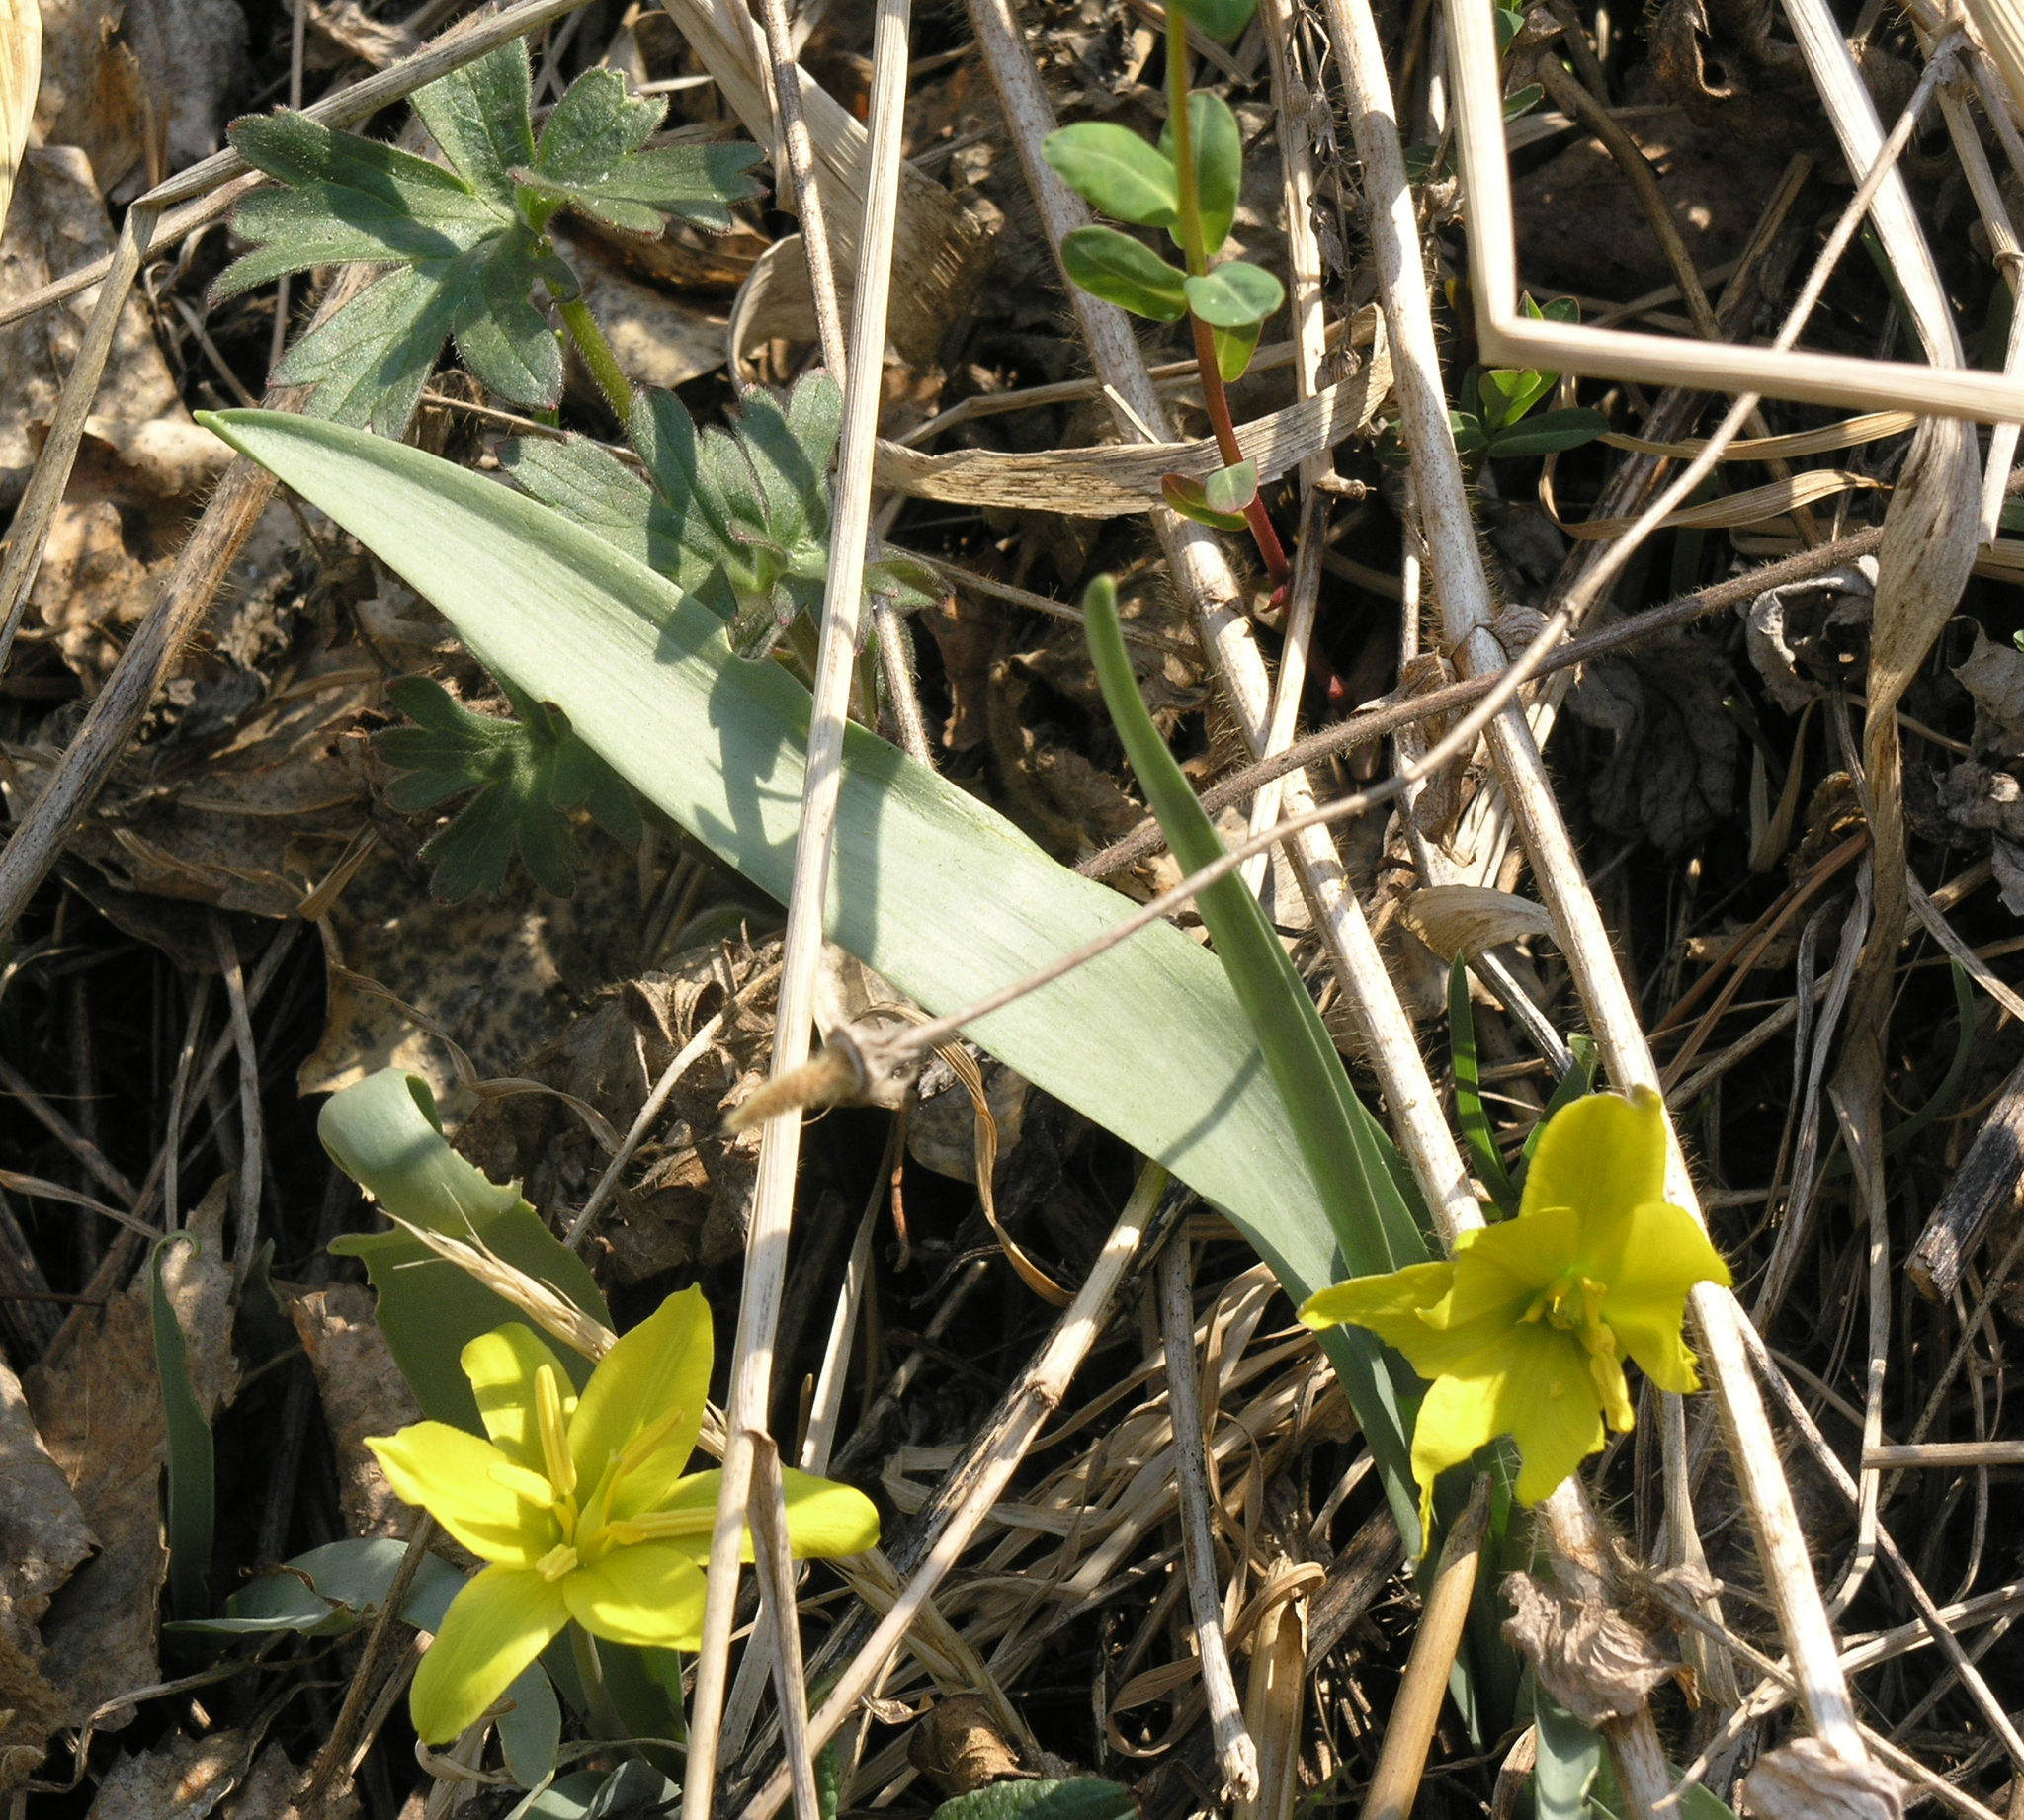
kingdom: Plantae
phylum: Tracheophyta
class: Liliopsida
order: Liliales
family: Liliaceae
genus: Tulipa
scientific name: Tulipa uniflora
